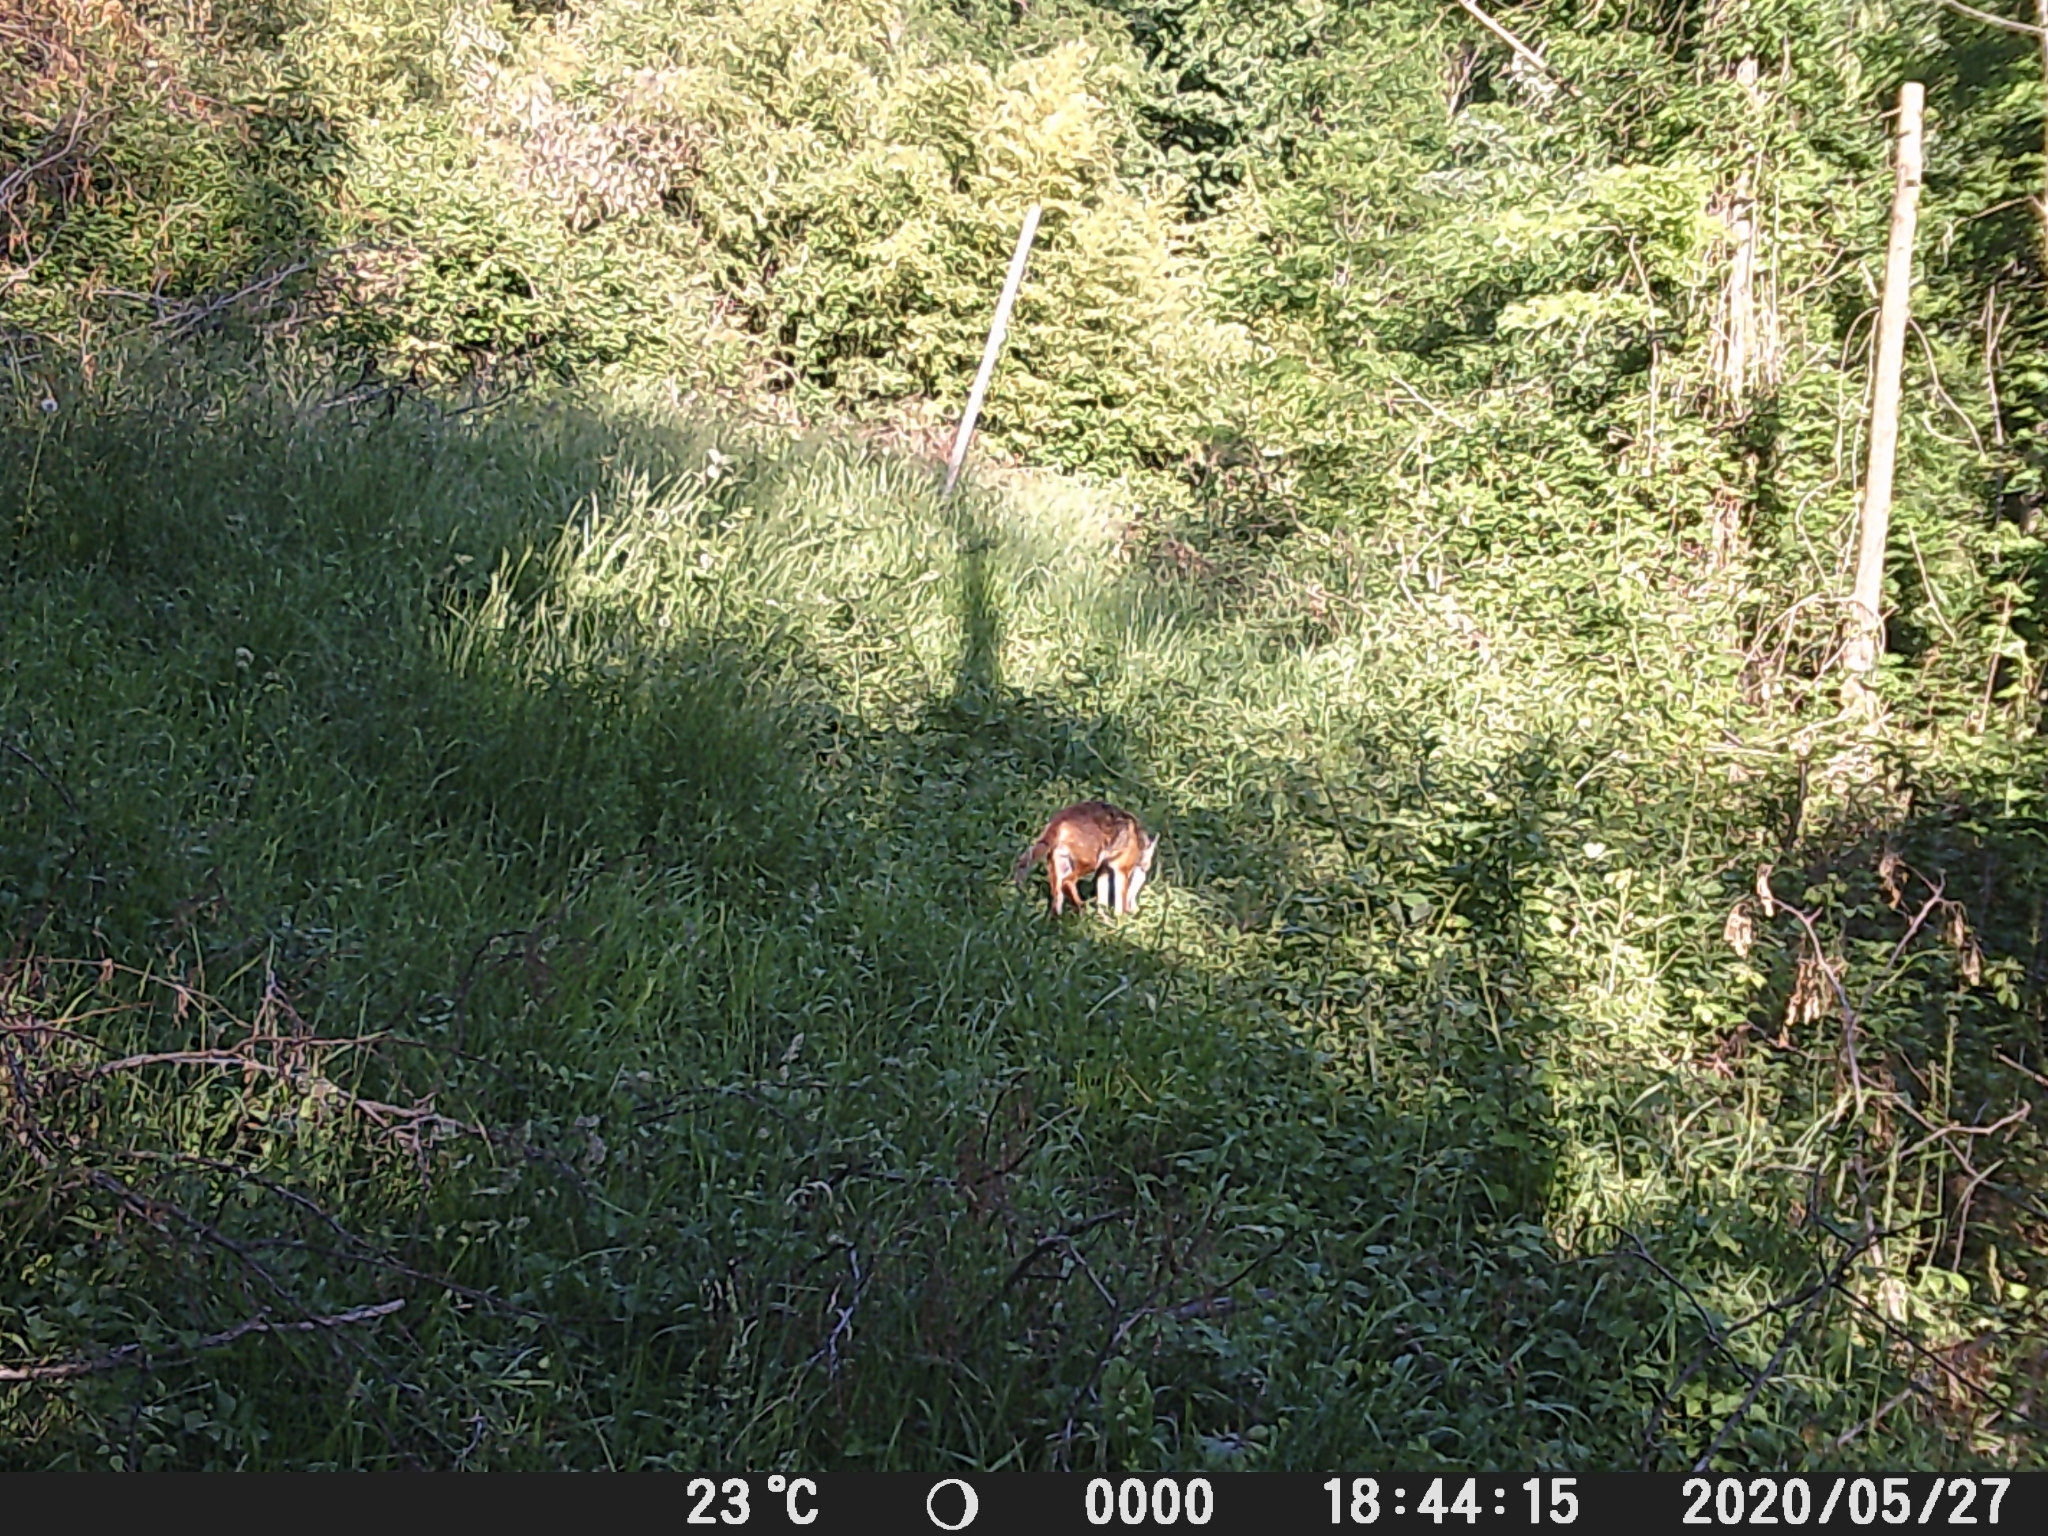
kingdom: Animalia
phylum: Chordata
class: Mammalia
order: Carnivora
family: Canidae
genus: Vulpes
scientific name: Vulpes vulpes
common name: Red fox
